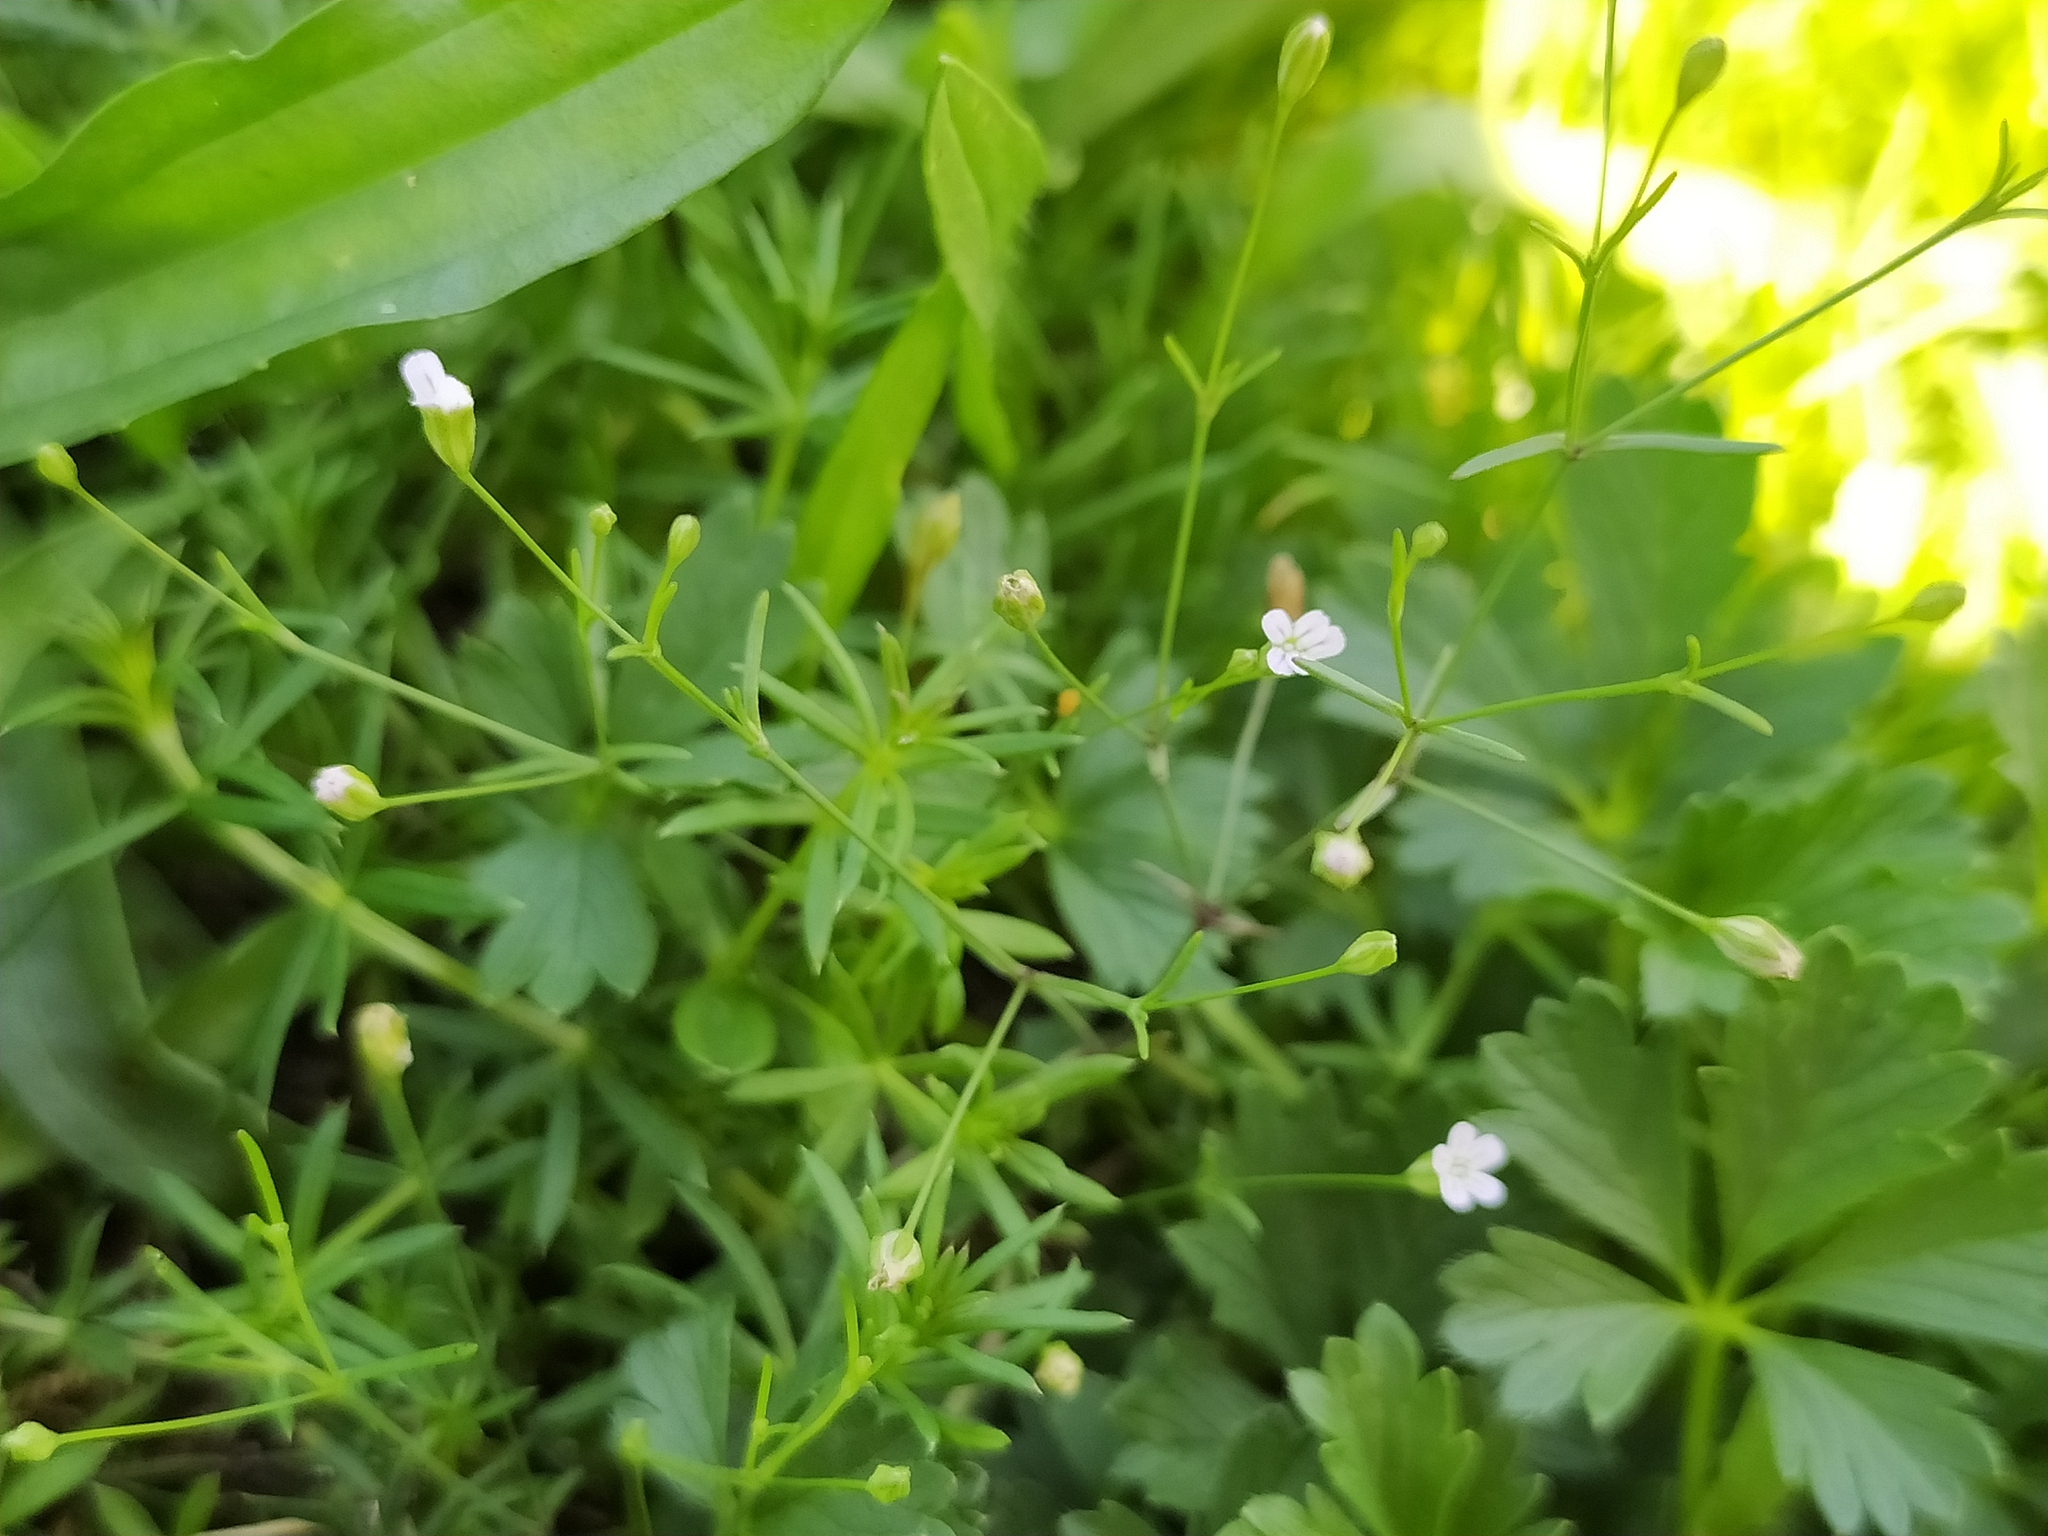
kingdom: Plantae
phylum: Tracheophyta
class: Magnoliopsida
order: Caryophyllales
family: Caryophyllaceae
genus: Psammophiliella
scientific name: Psammophiliella muralis
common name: Cushion baby's-breath
